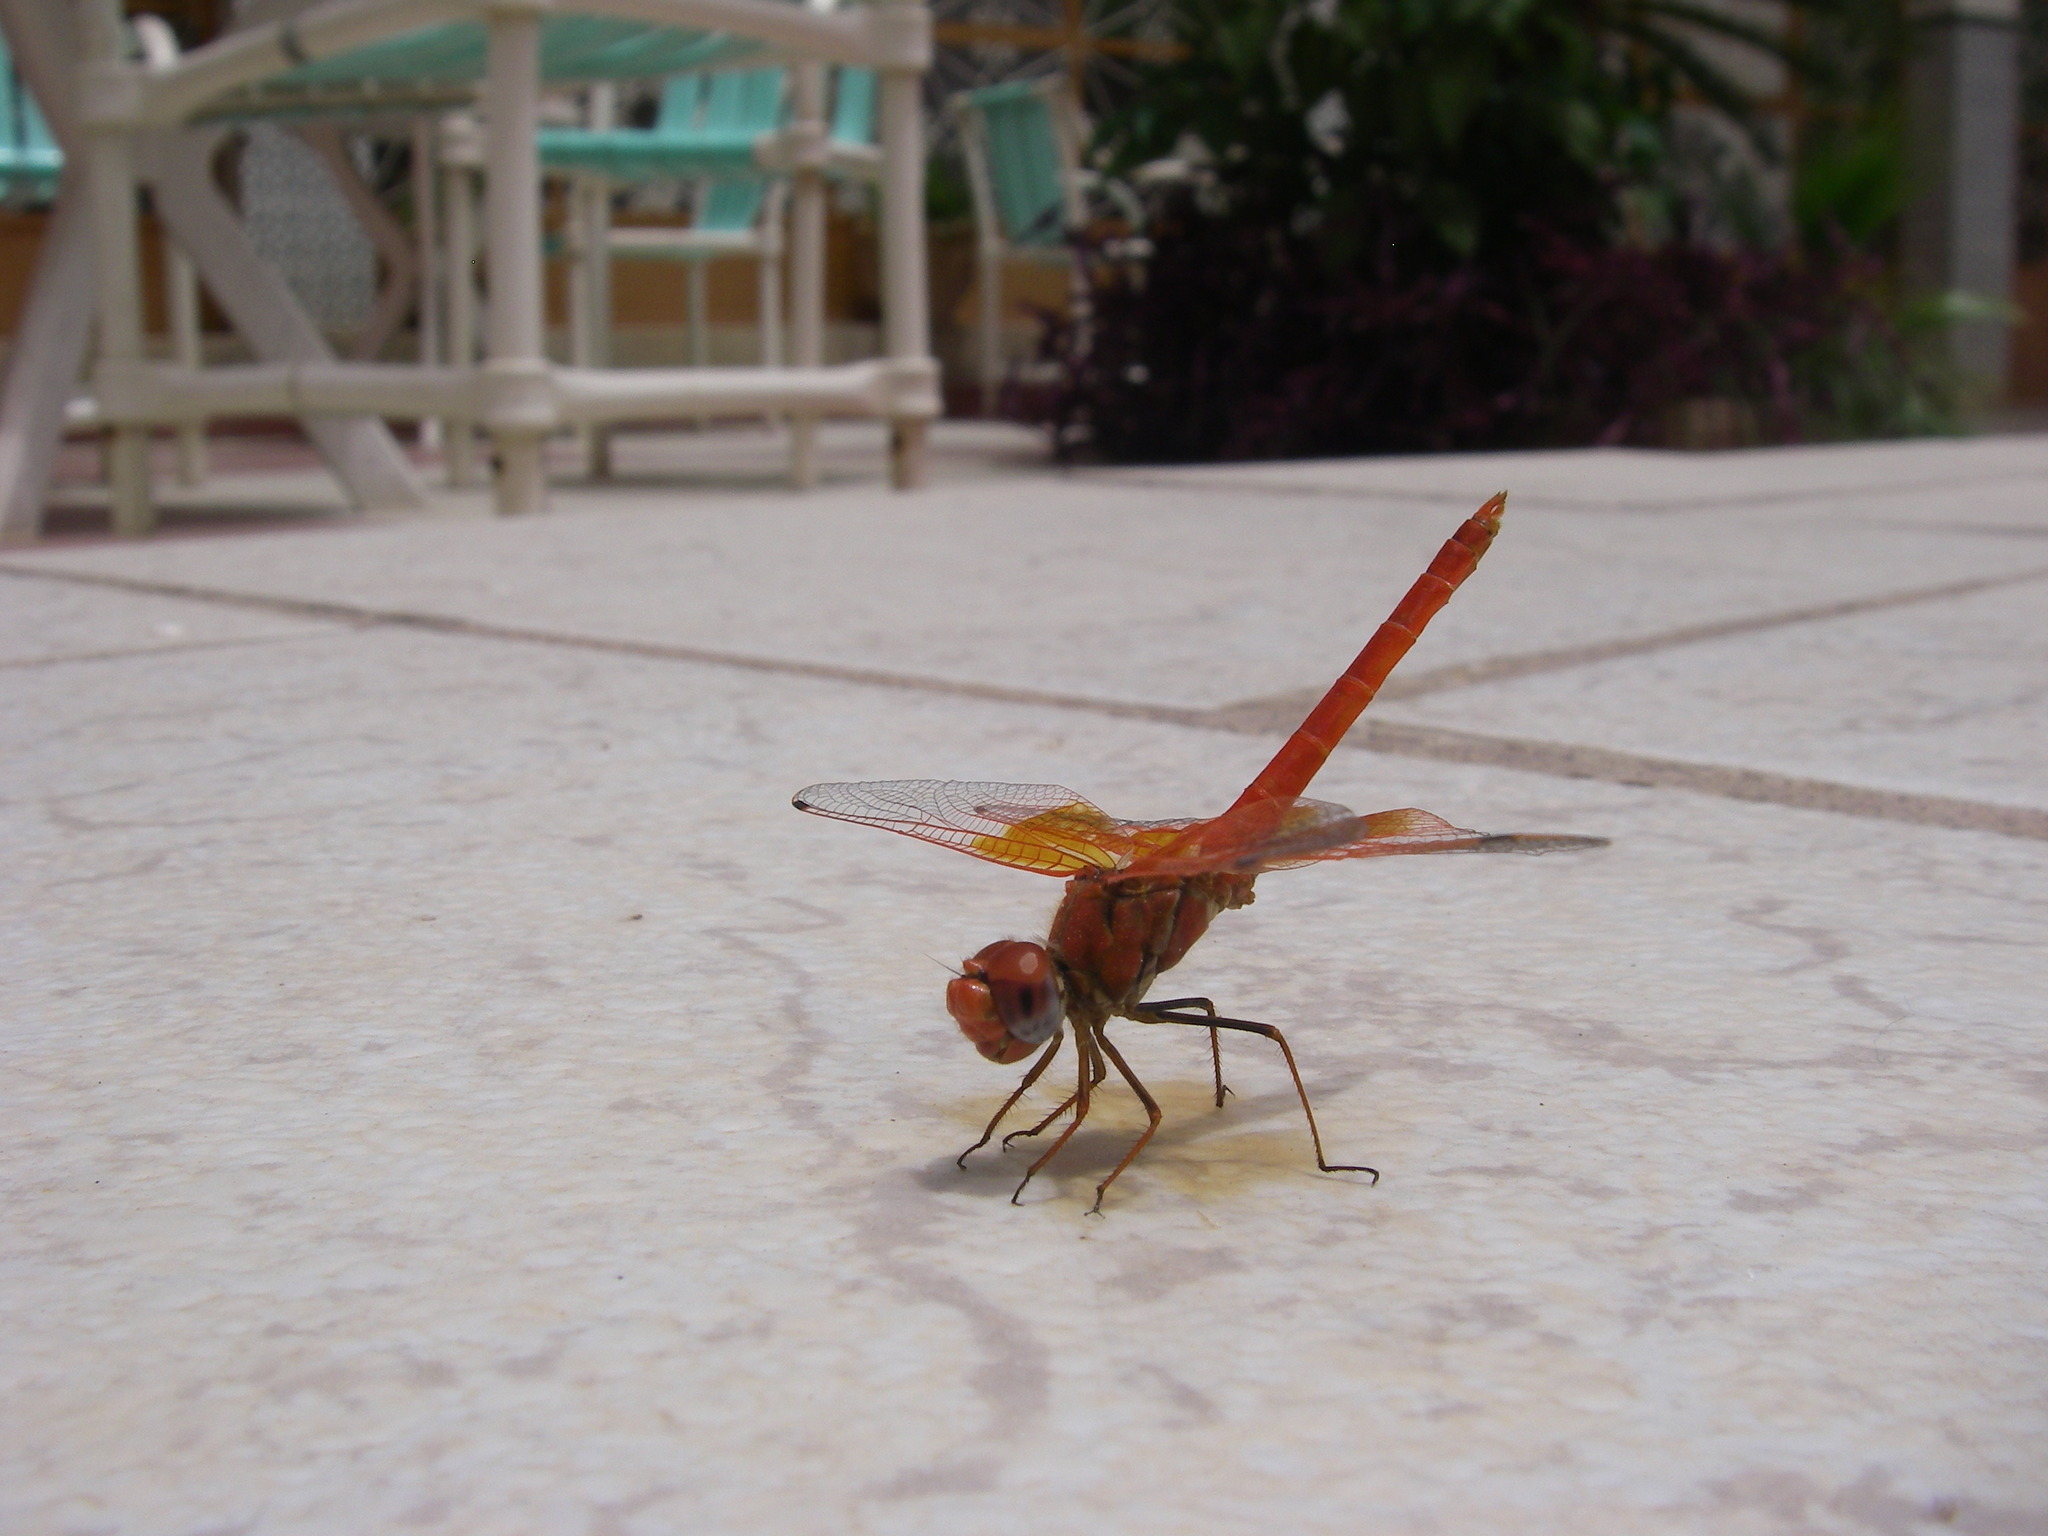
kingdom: Animalia
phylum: Arthropoda
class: Insecta
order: Odonata
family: Libellulidae
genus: Trithemis
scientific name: Trithemis kirbyi
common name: Kirby's dropwing
